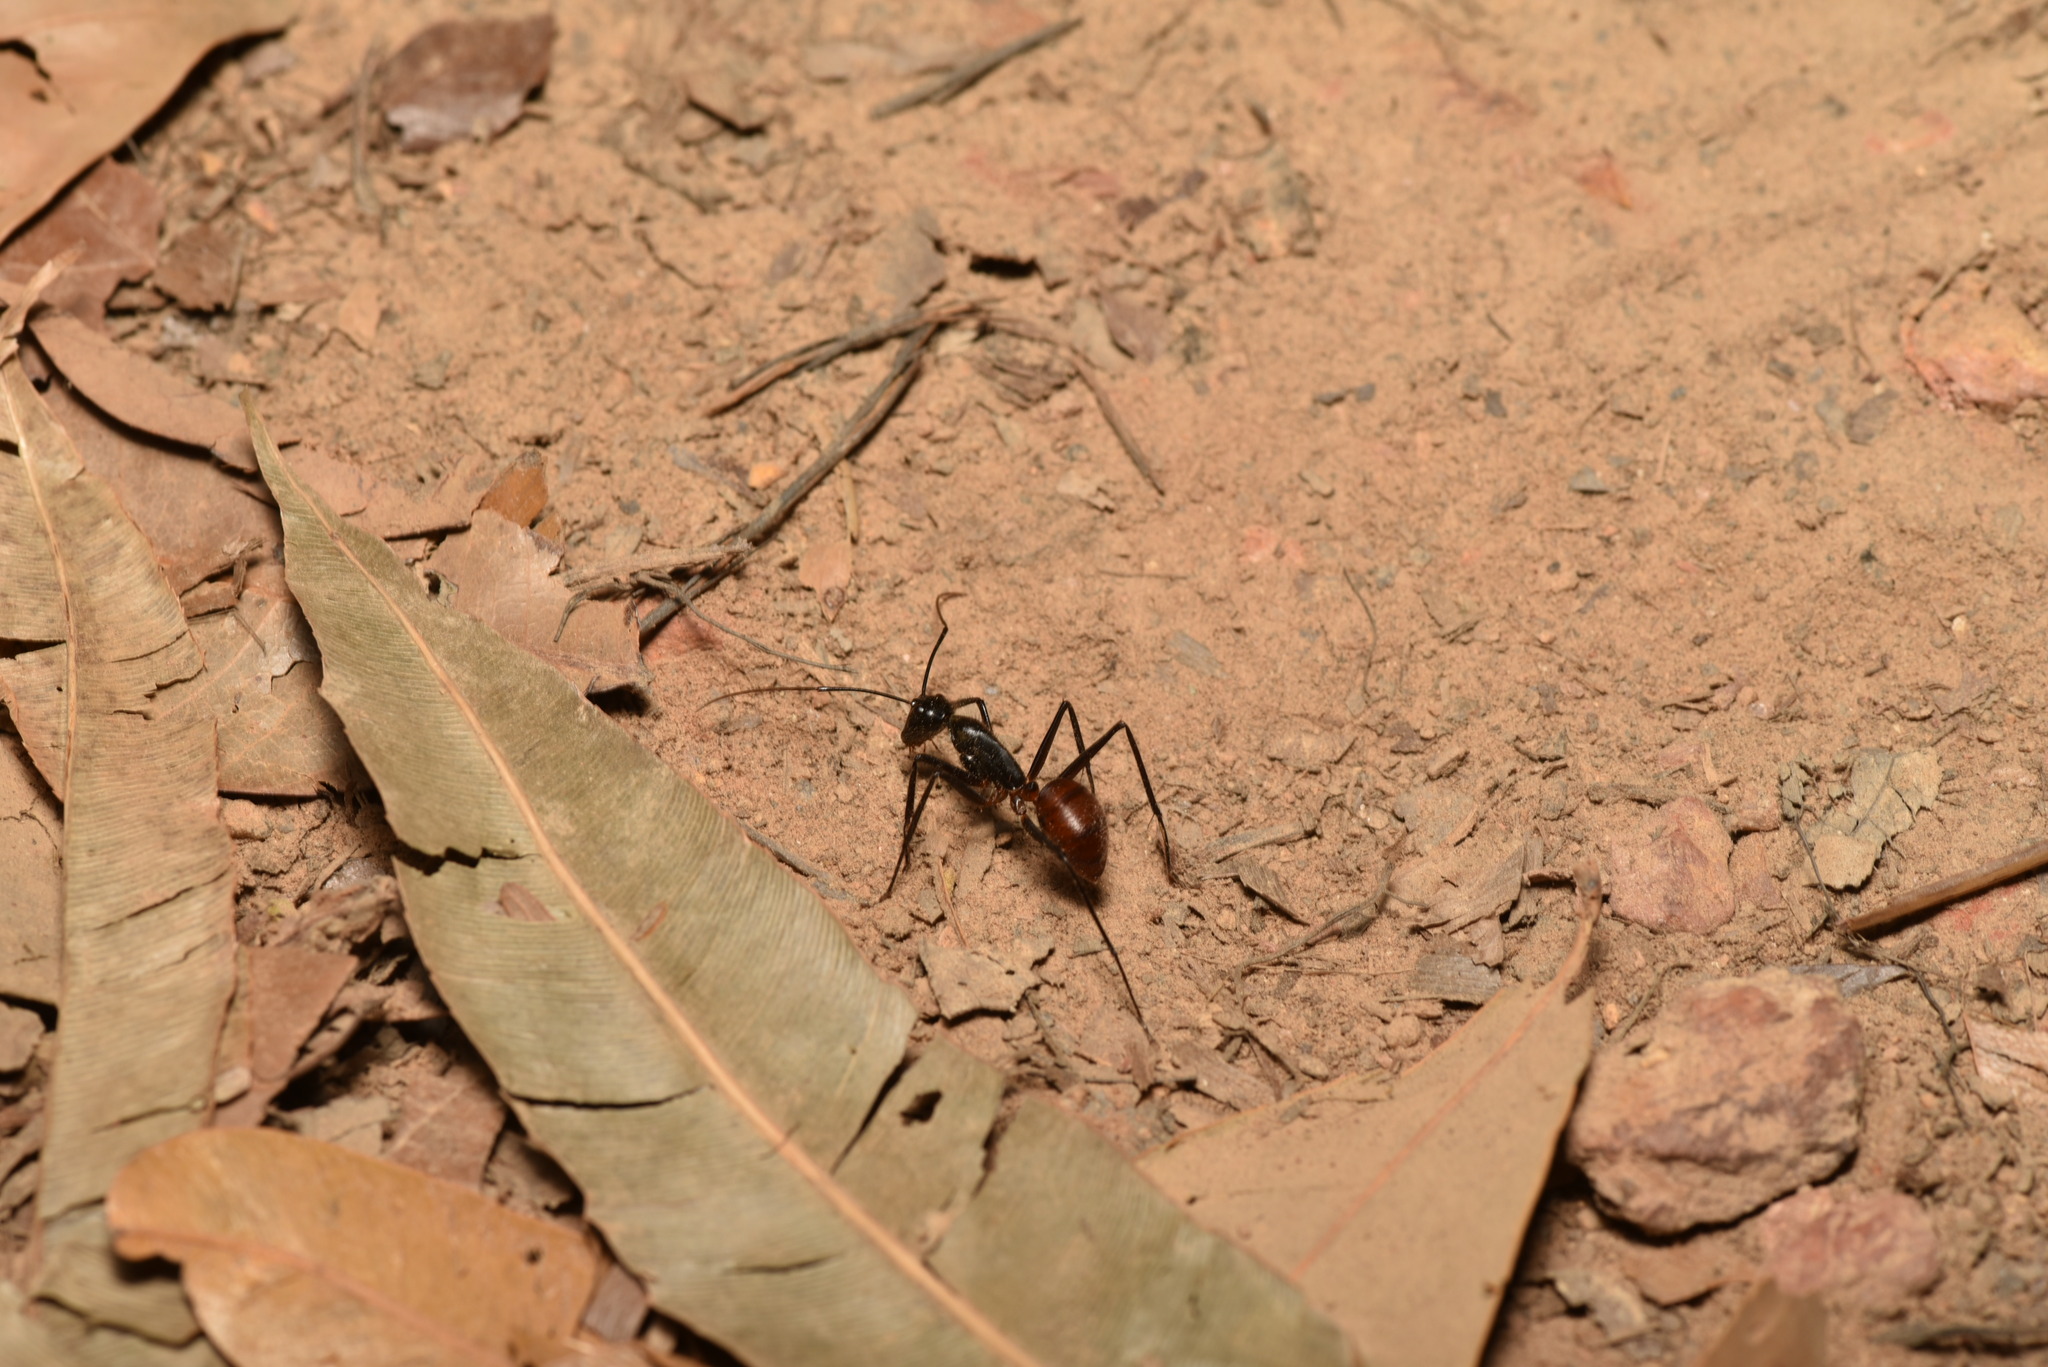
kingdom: Animalia
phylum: Arthropoda
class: Insecta
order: Hymenoptera
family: Formicidae
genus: Dinomyrmex
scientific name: Dinomyrmex
